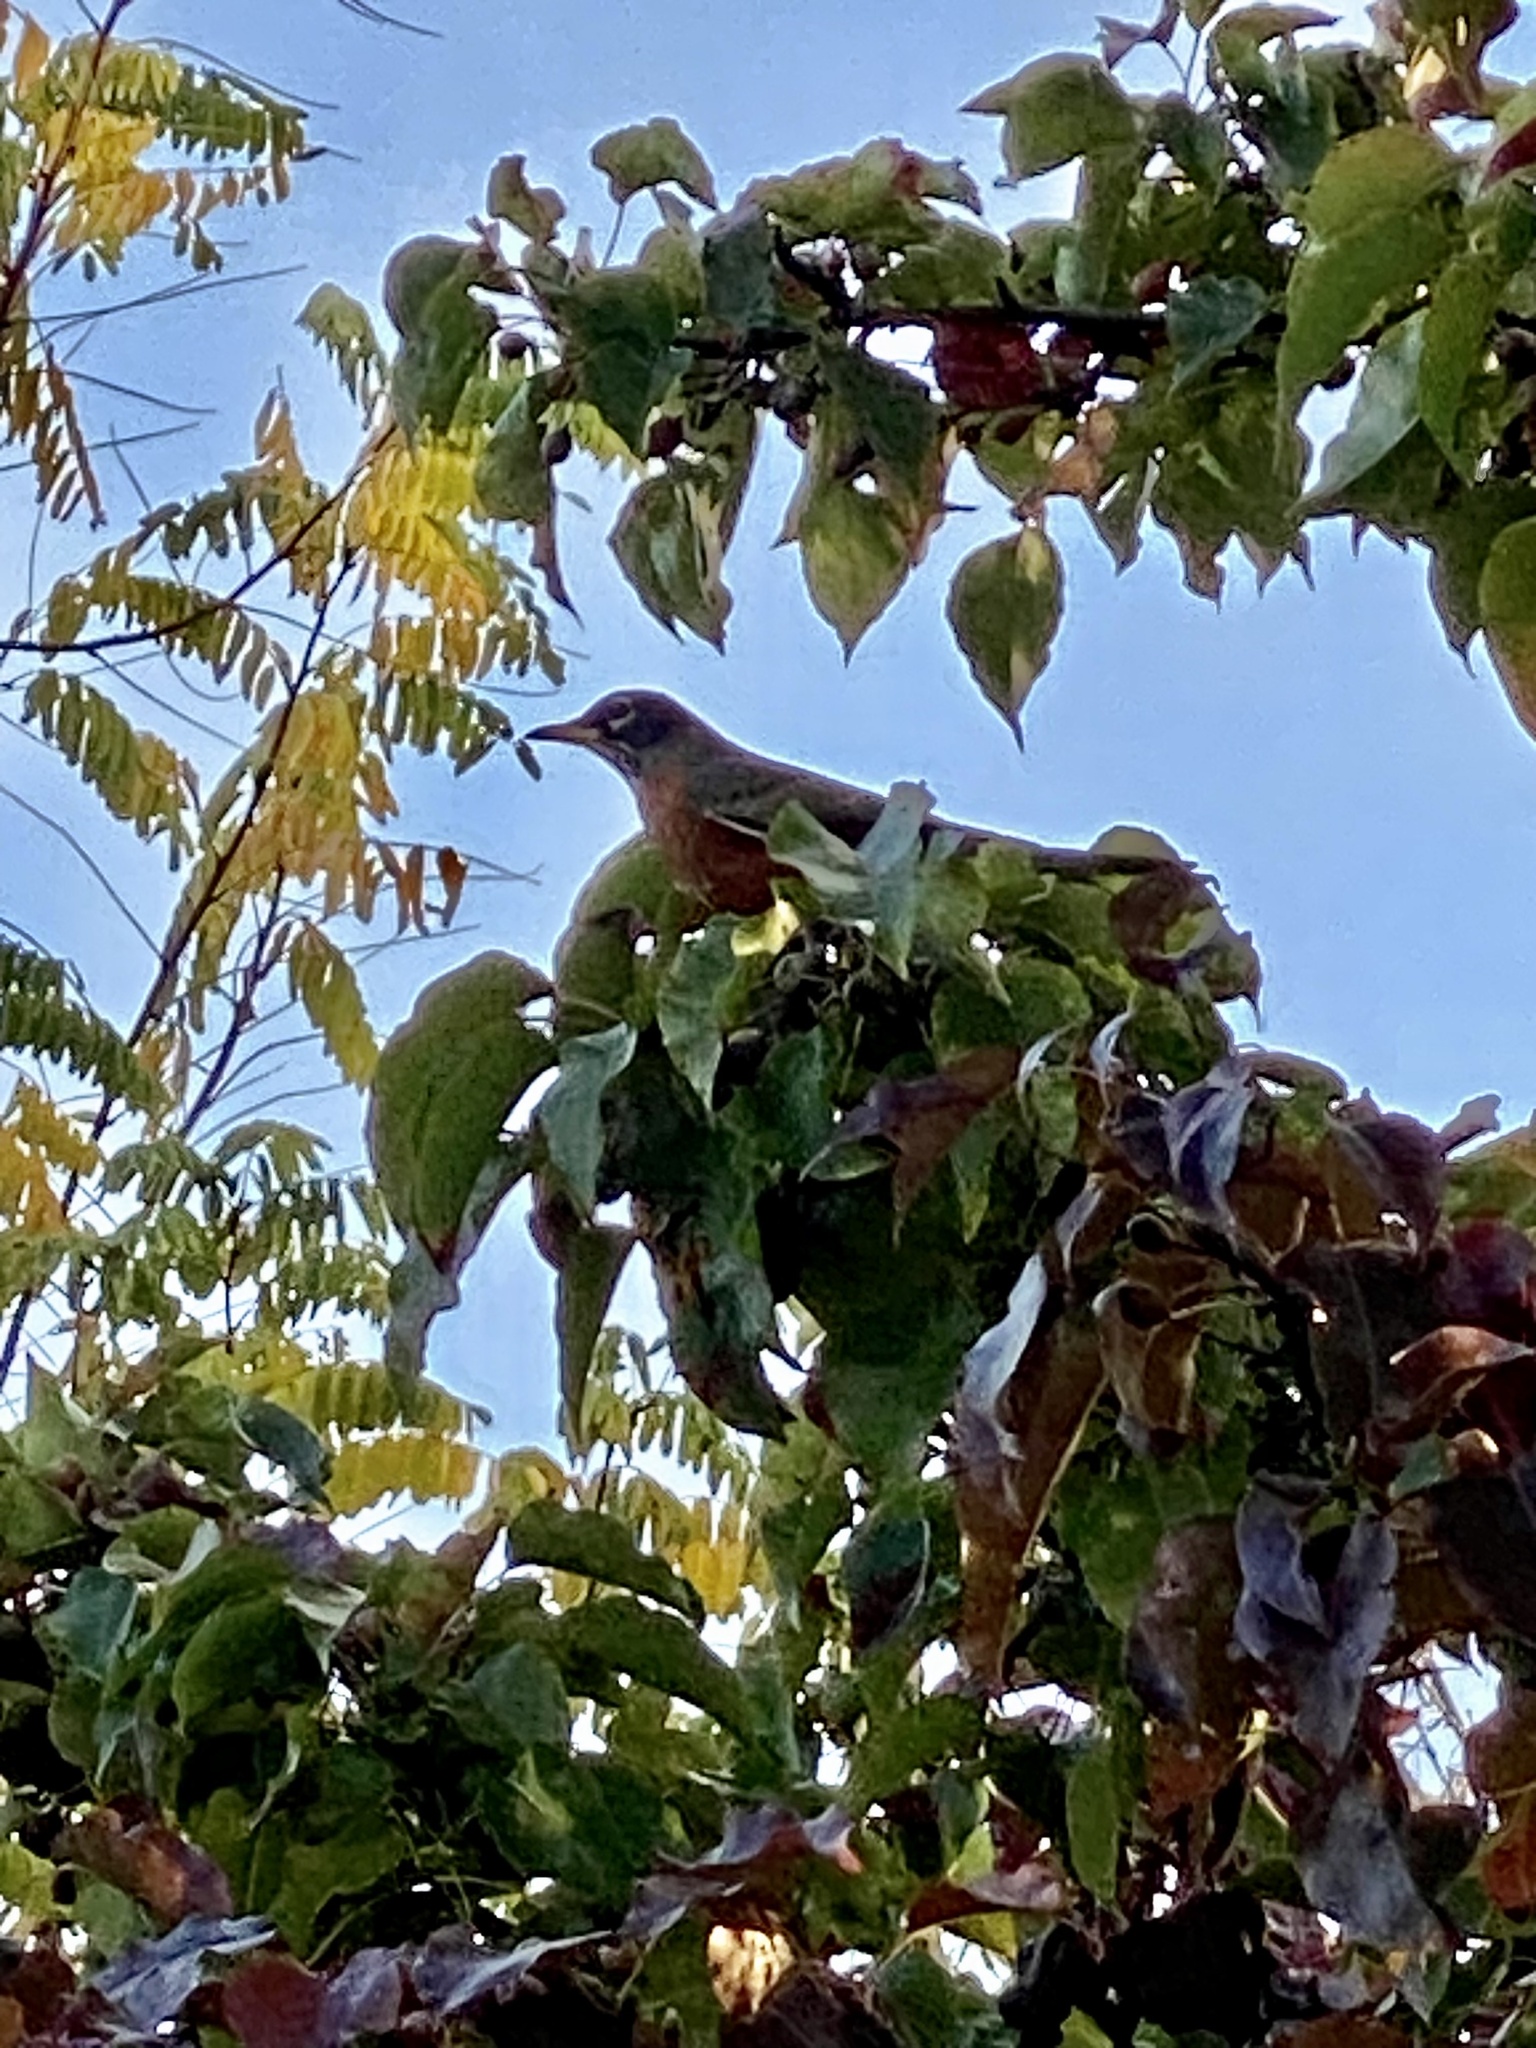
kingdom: Animalia
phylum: Chordata
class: Aves
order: Passeriformes
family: Turdidae
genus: Turdus
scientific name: Turdus migratorius
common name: American robin
